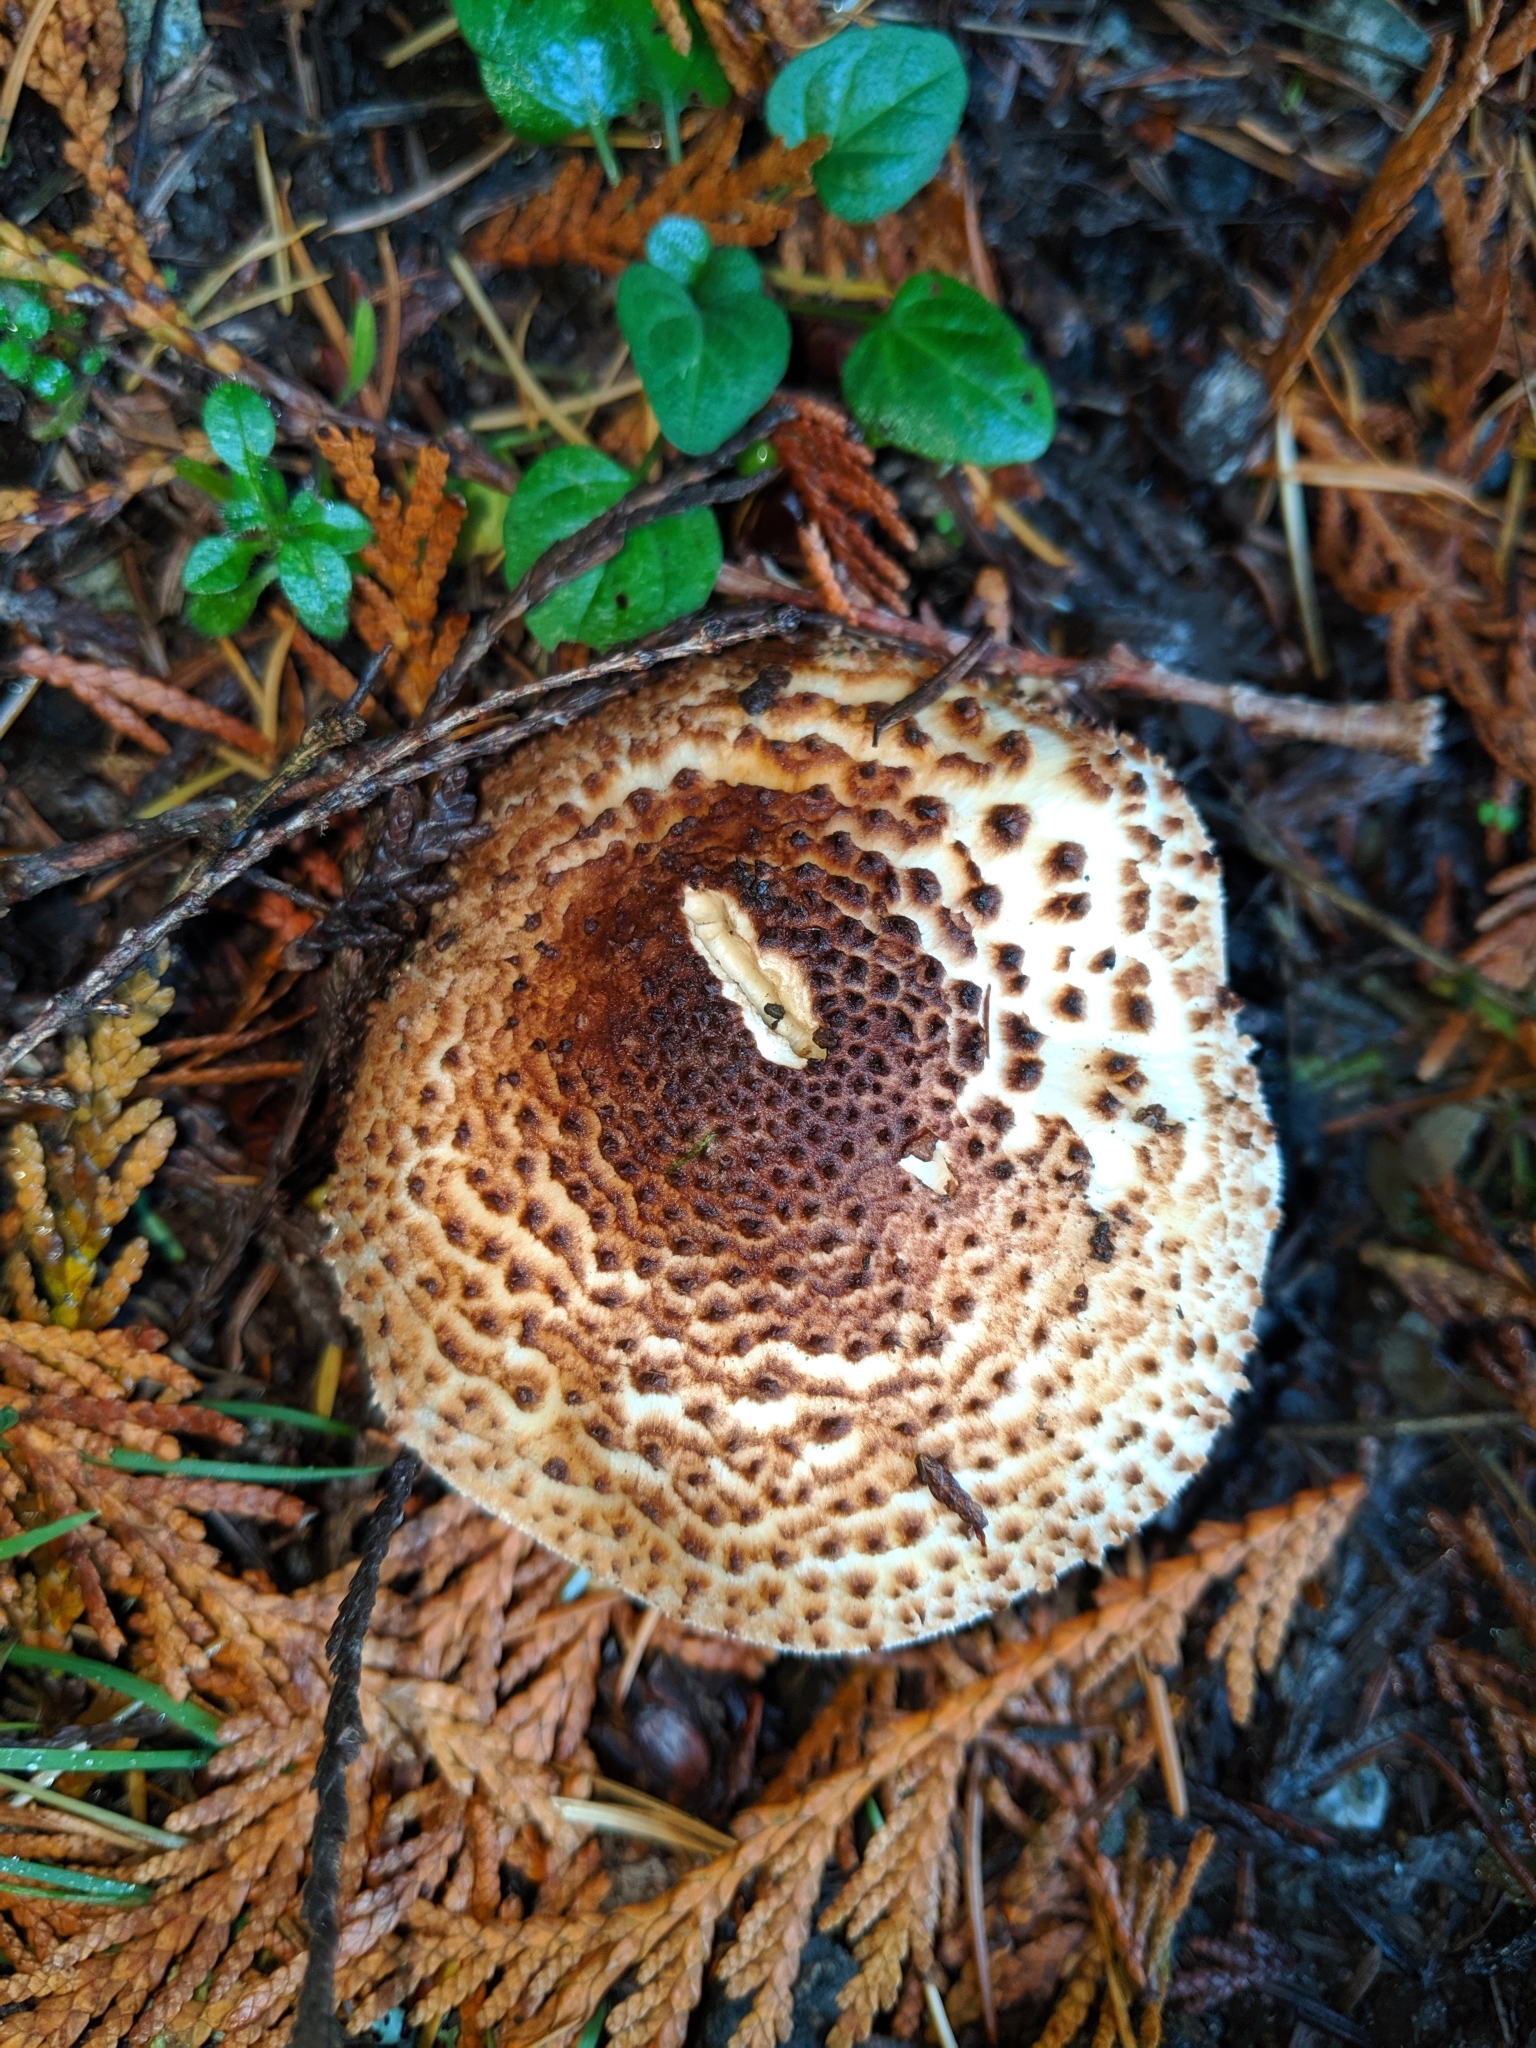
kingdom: Fungi
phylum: Basidiomycota
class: Agaricomycetes
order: Agaricales
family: Agaricaceae
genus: Echinoderma
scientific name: Echinoderma asperum
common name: Freckled dapperling
